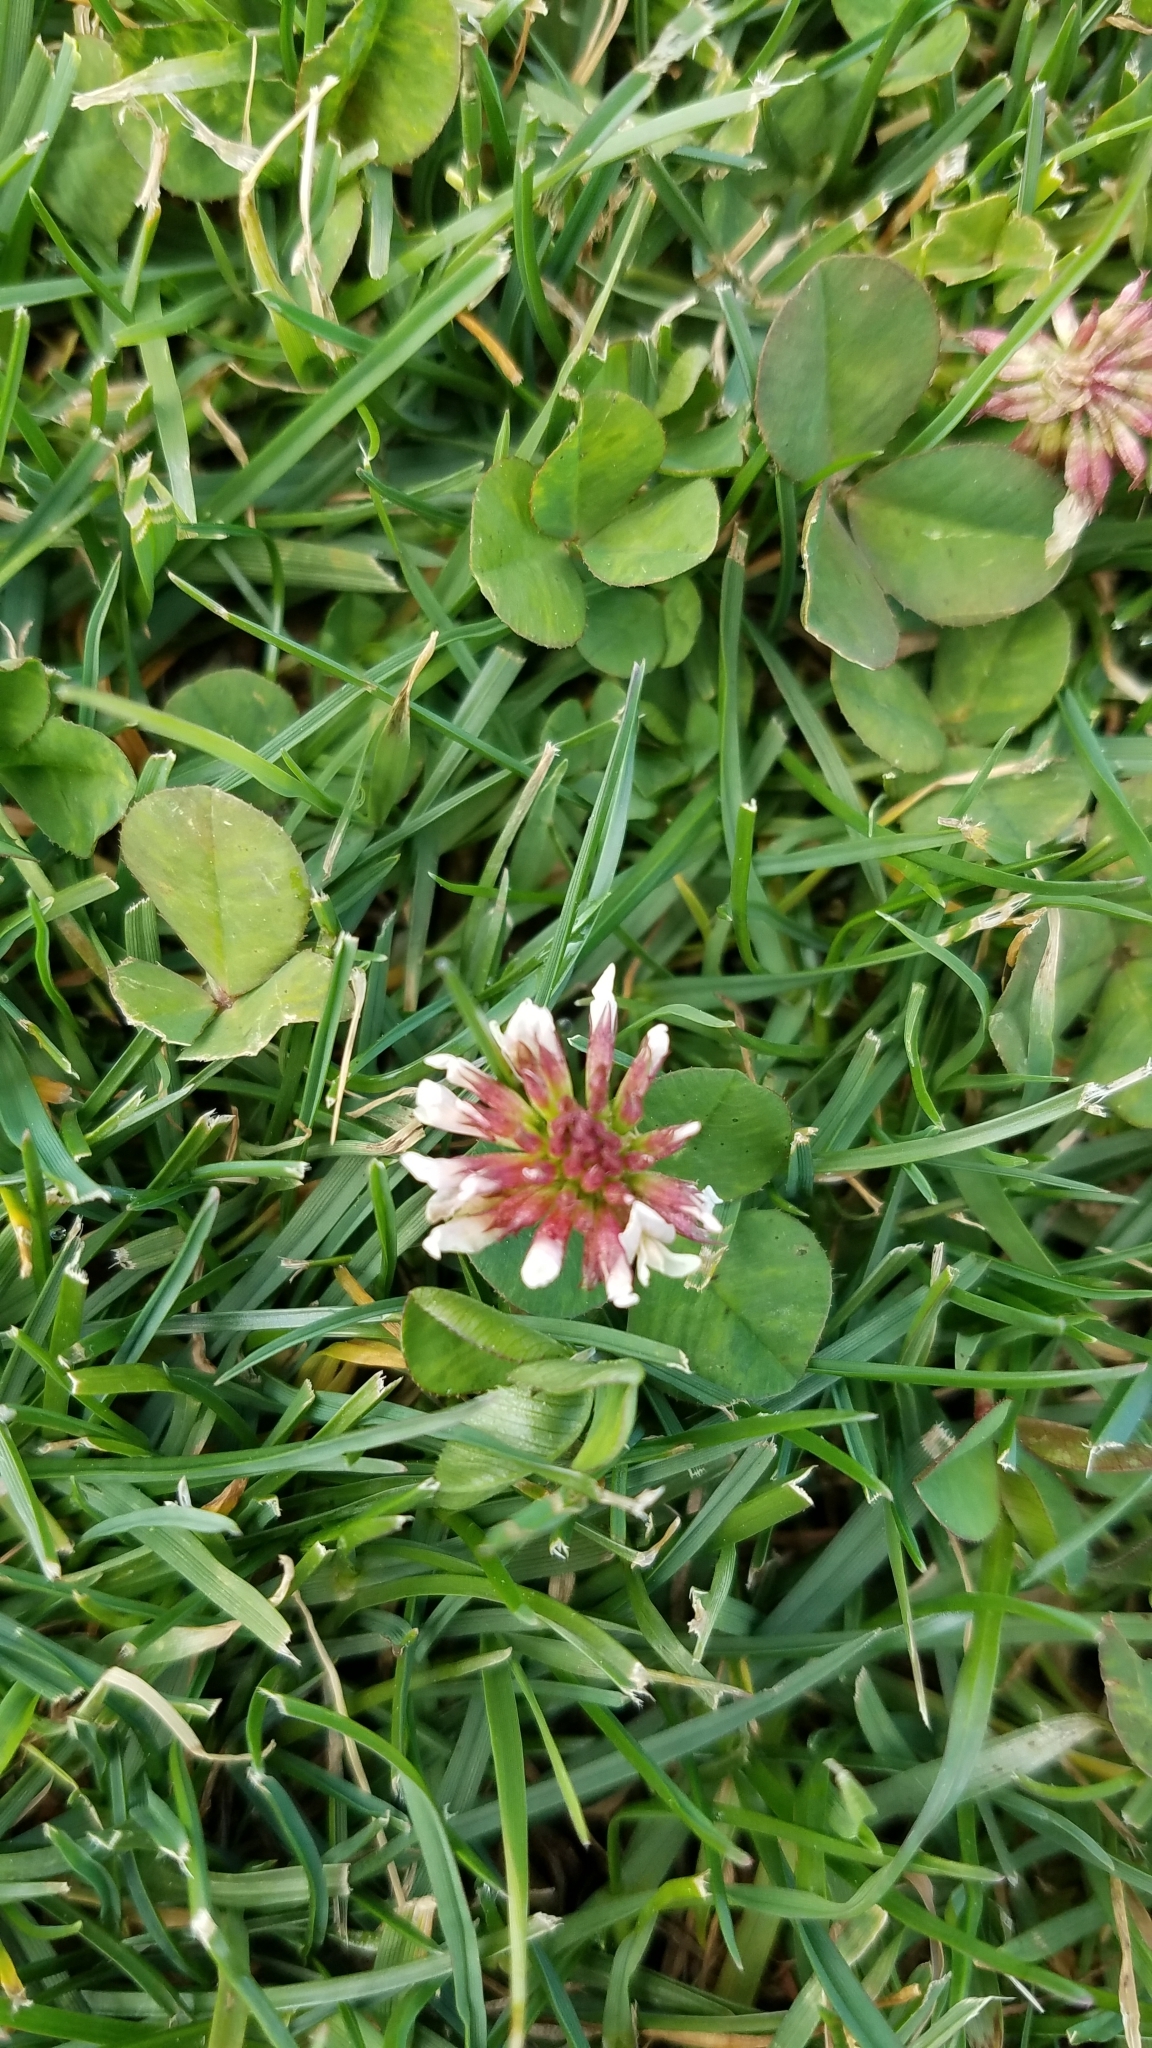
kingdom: Plantae
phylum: Tracheophyta
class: Magnoliopsida
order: Fabales
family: Fabaceae
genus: Trifolium
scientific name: Trifolium repens
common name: White clover
